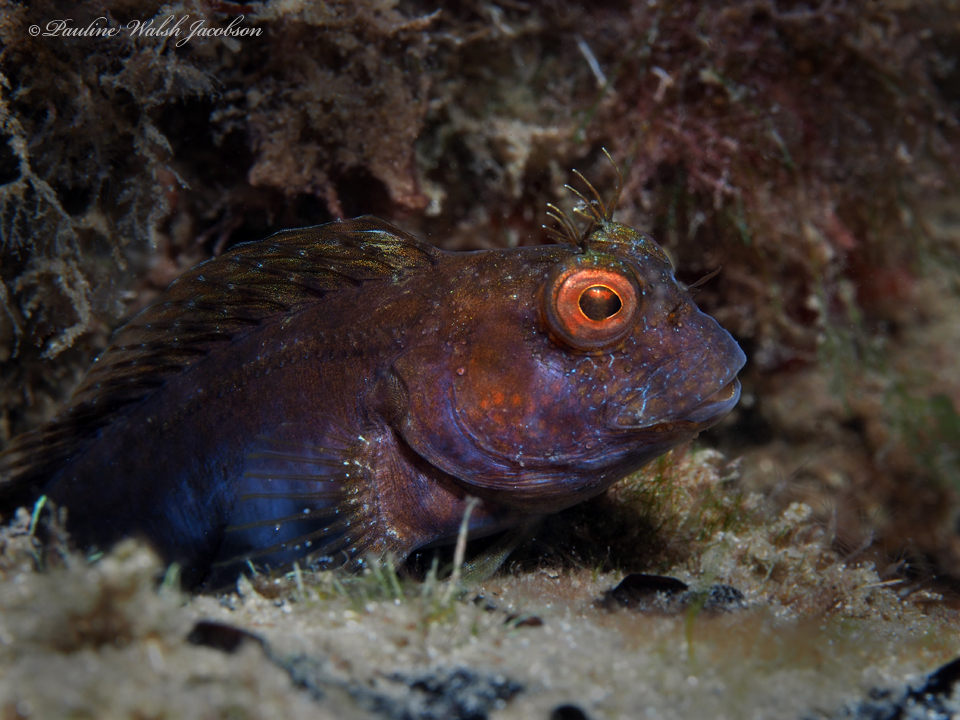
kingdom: Animalia
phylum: Chordata
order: Perciformes
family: Blenniidae
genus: Parablennius
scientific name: Parablennius marmoreus
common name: Seaweed blenny
